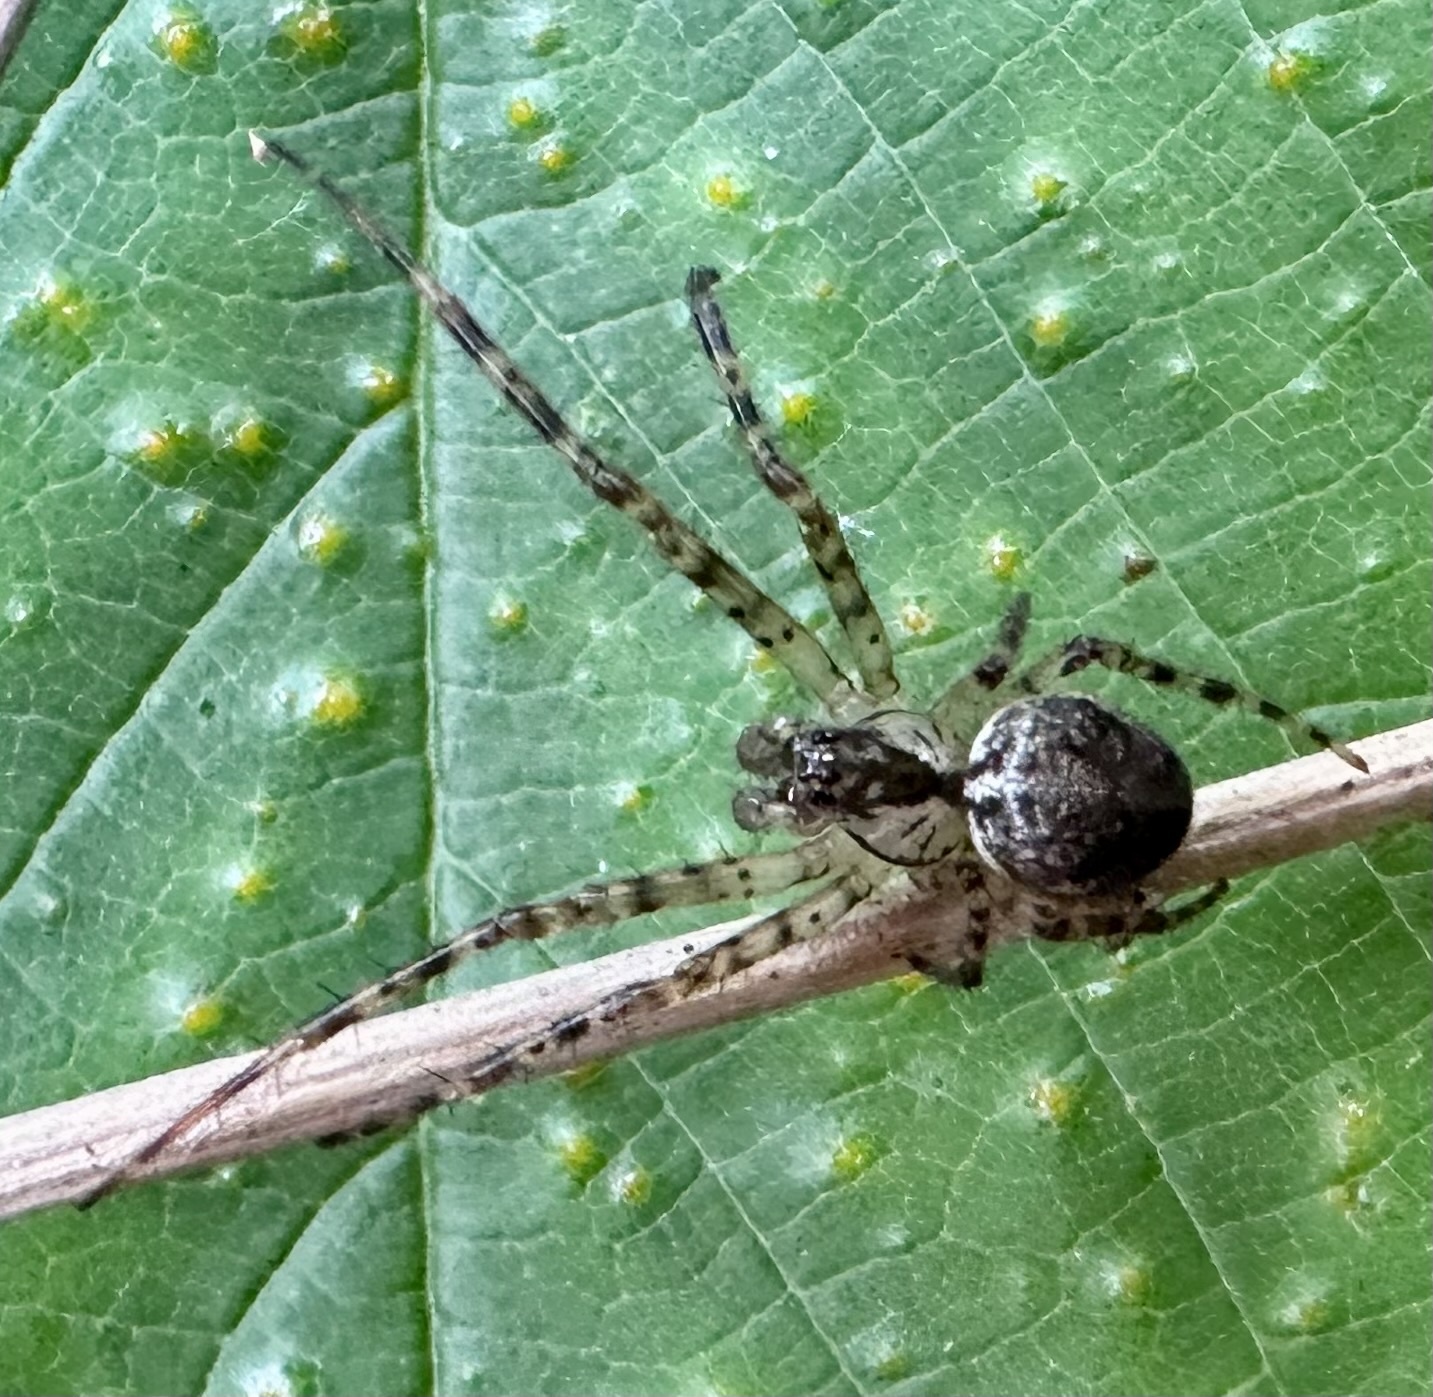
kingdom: Animalia
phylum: Arthropoda
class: Arachnida
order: Araneae
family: Tetragnathidae
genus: Metellina
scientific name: Metellina merianae
